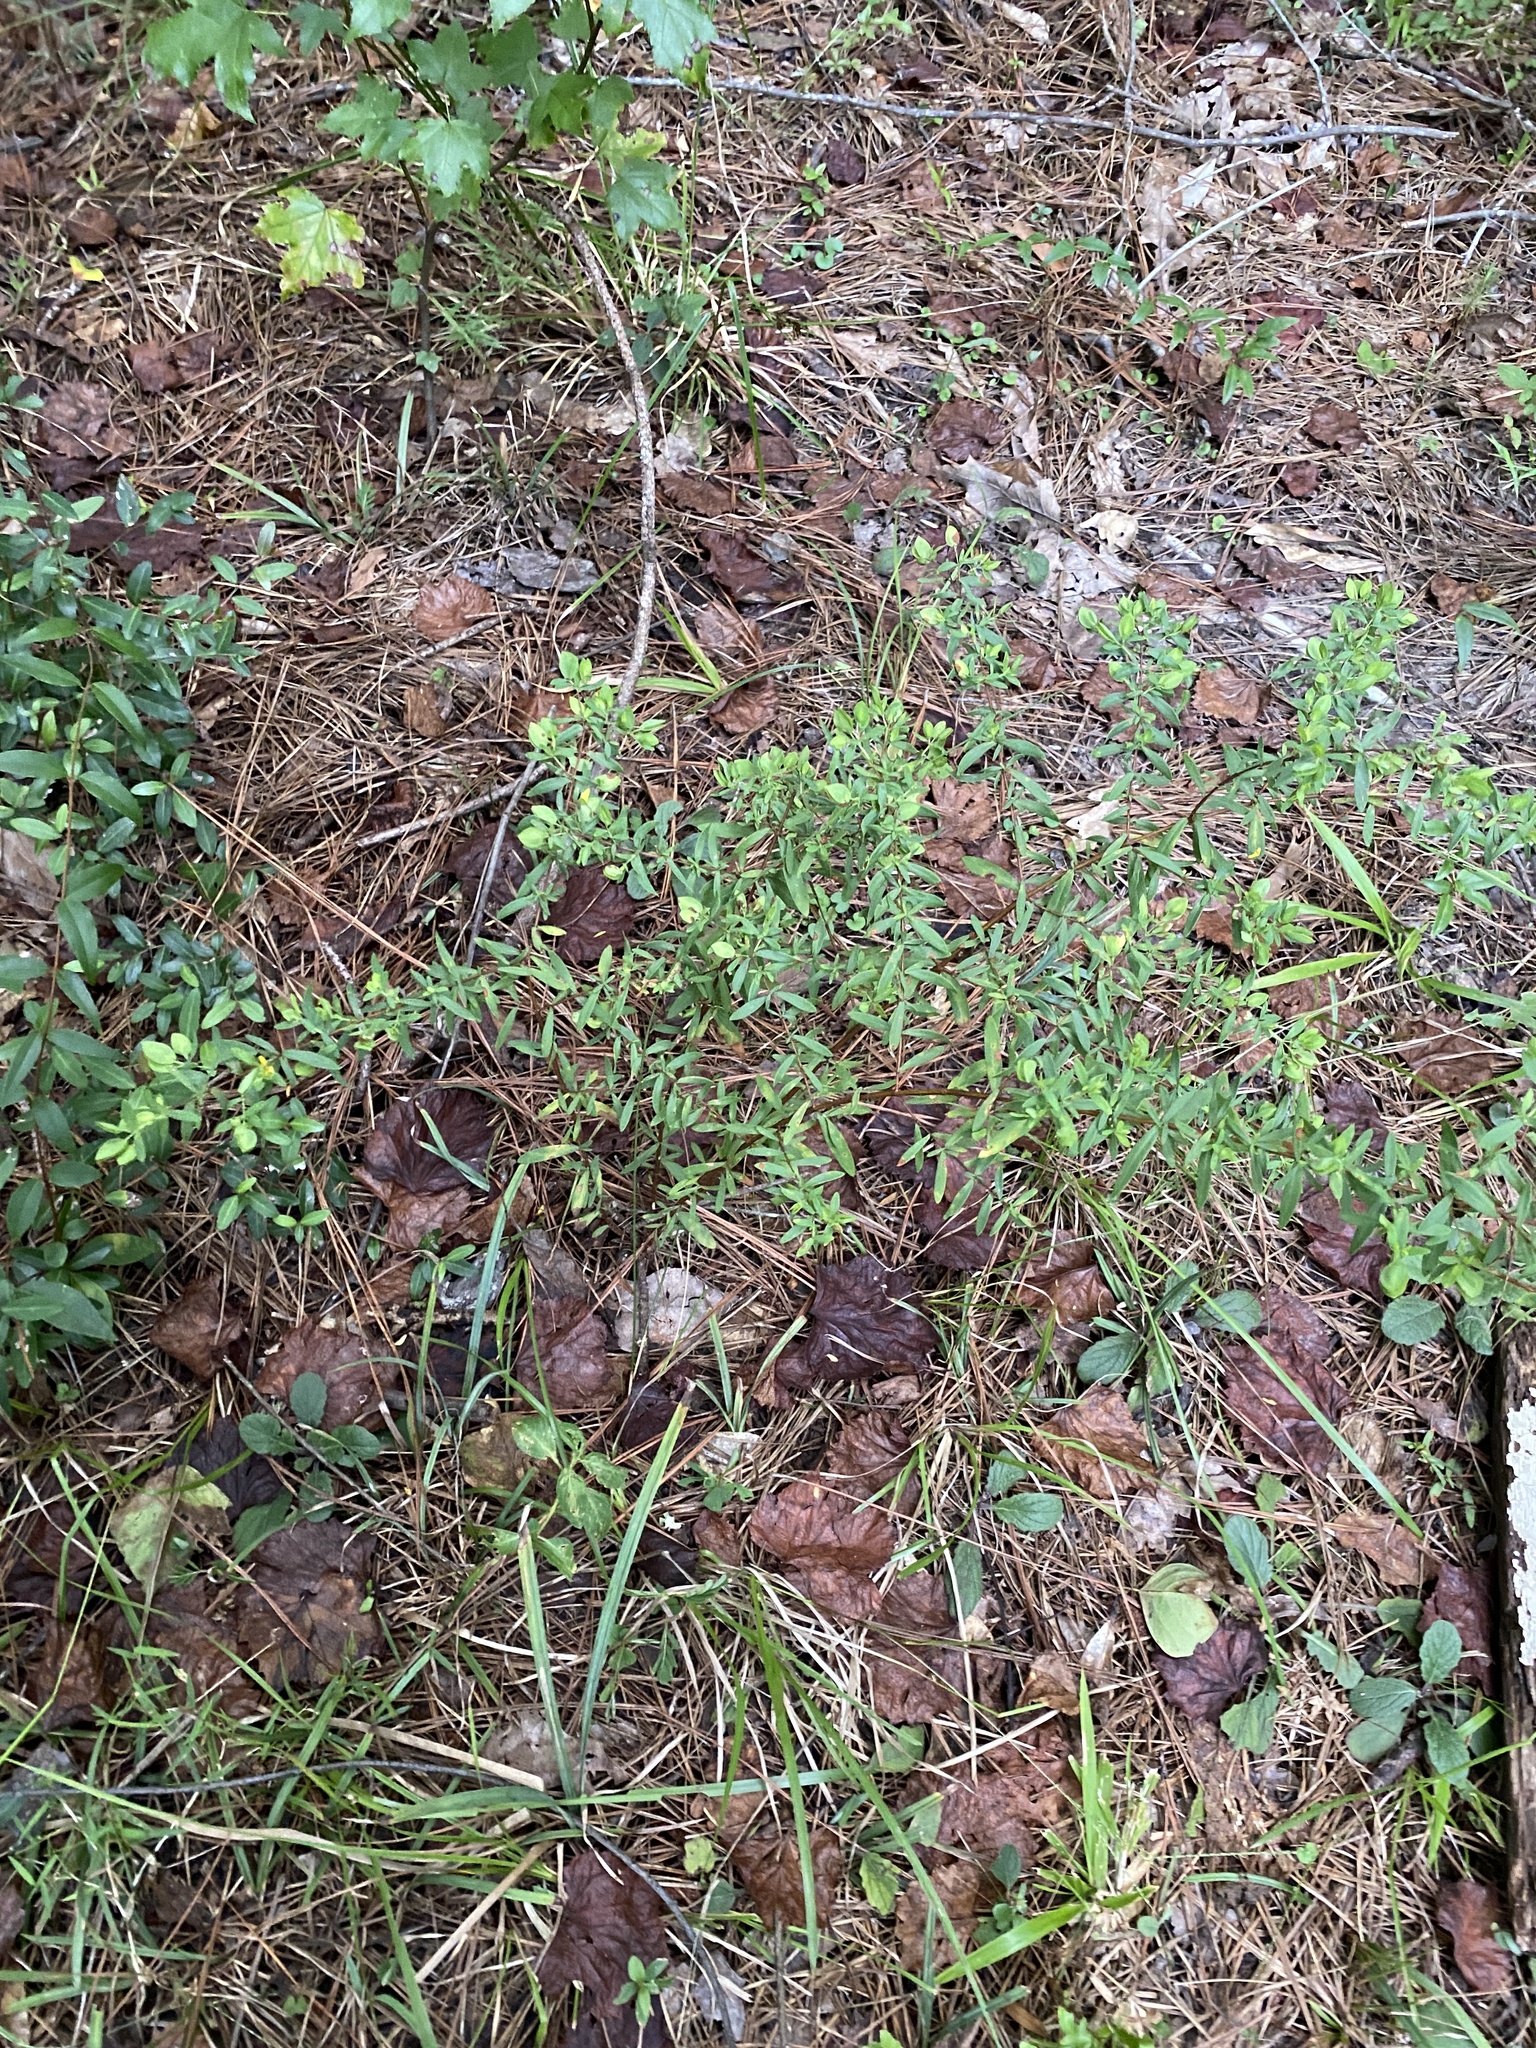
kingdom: Plantae
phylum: Tracheophyta
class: Magnoliopsida
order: Malpighiales
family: Hypericaceae
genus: Hypericum
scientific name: Hypericum hypericoides
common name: St. andrew's cross
